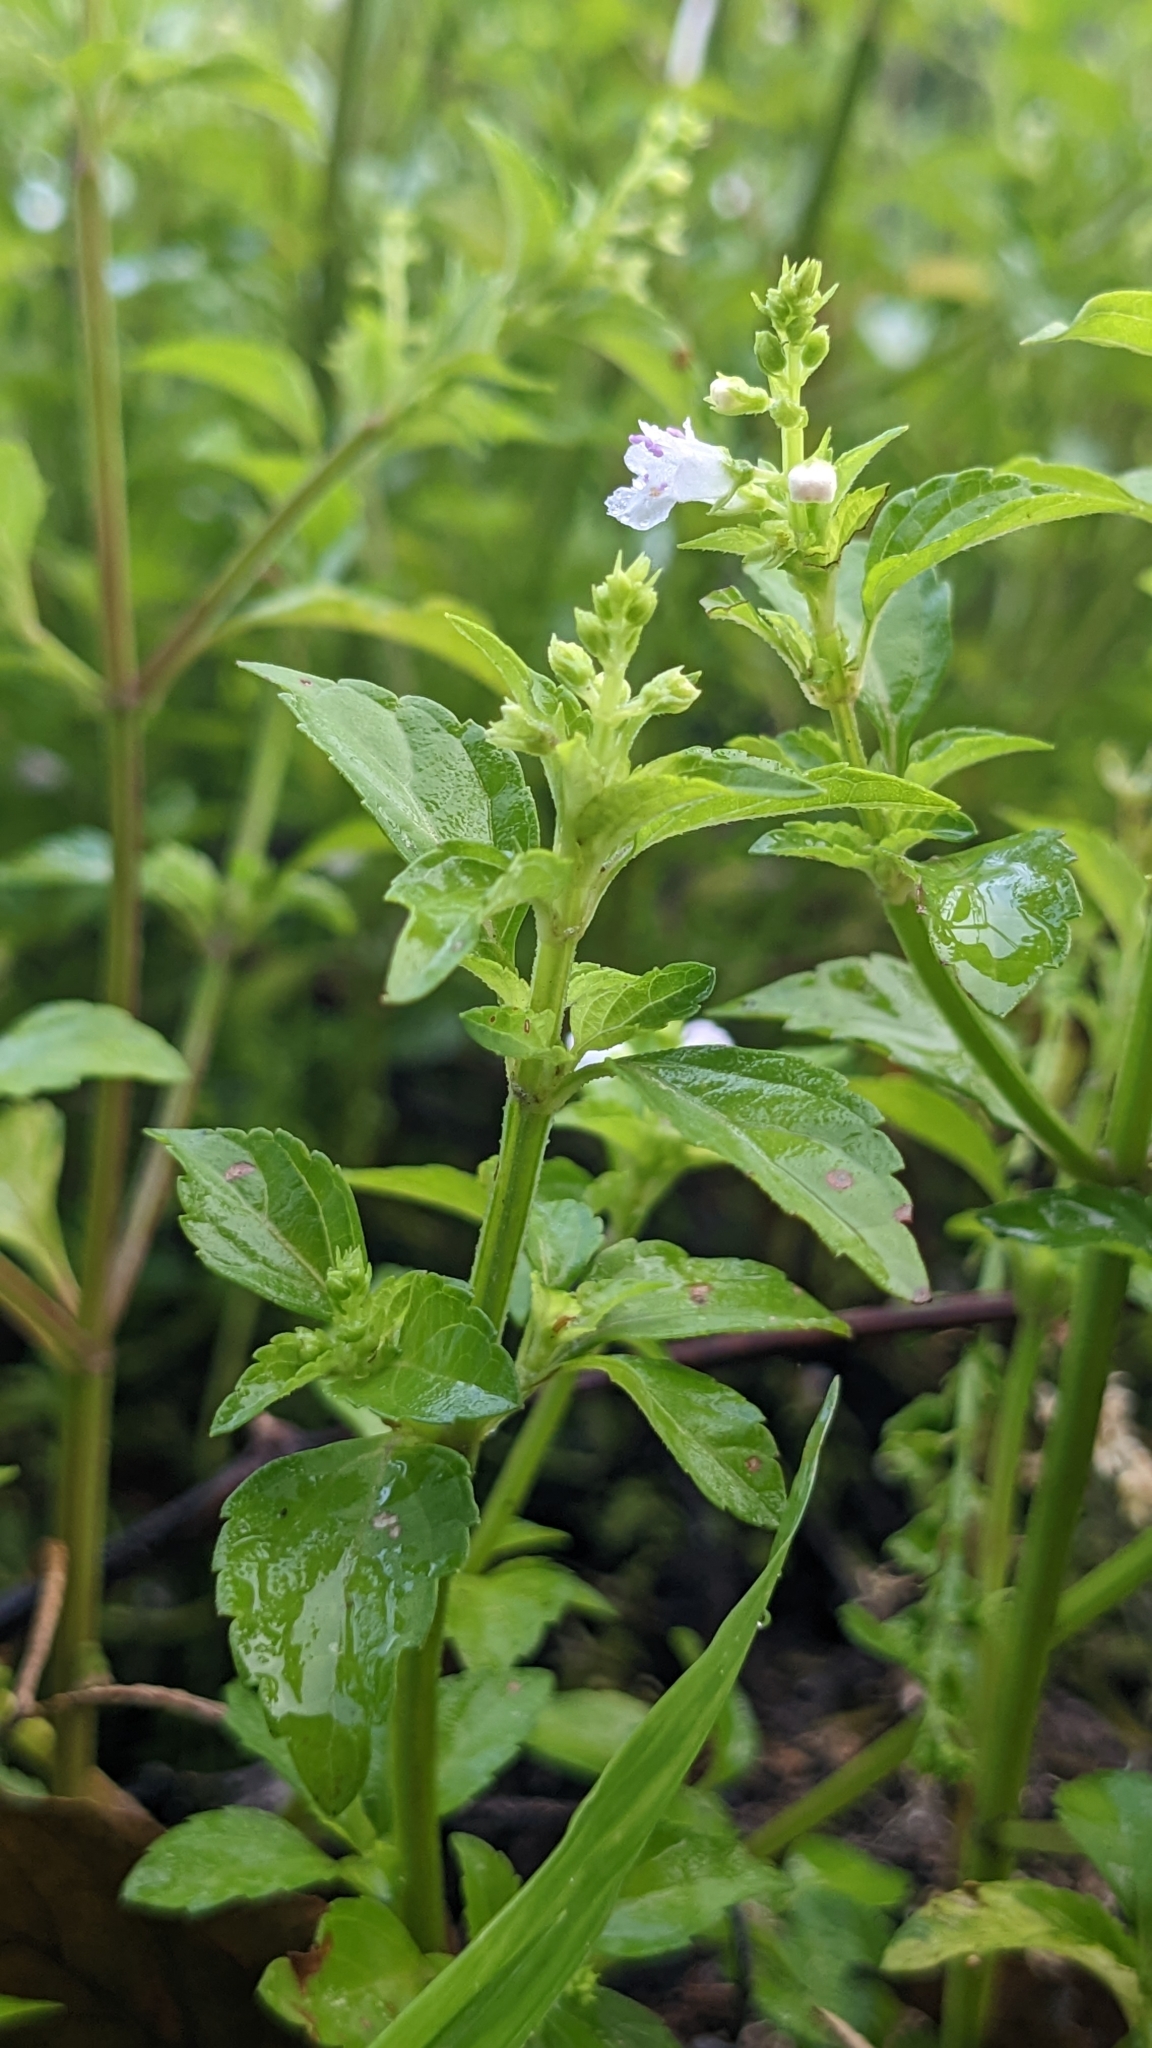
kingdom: Plantae
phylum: Tracheophyta
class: Magnoliopsida
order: Lamiales
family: Lamiaceae
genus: Mosla
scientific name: Mosla dianthera
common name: Miniature beefsteakplant
